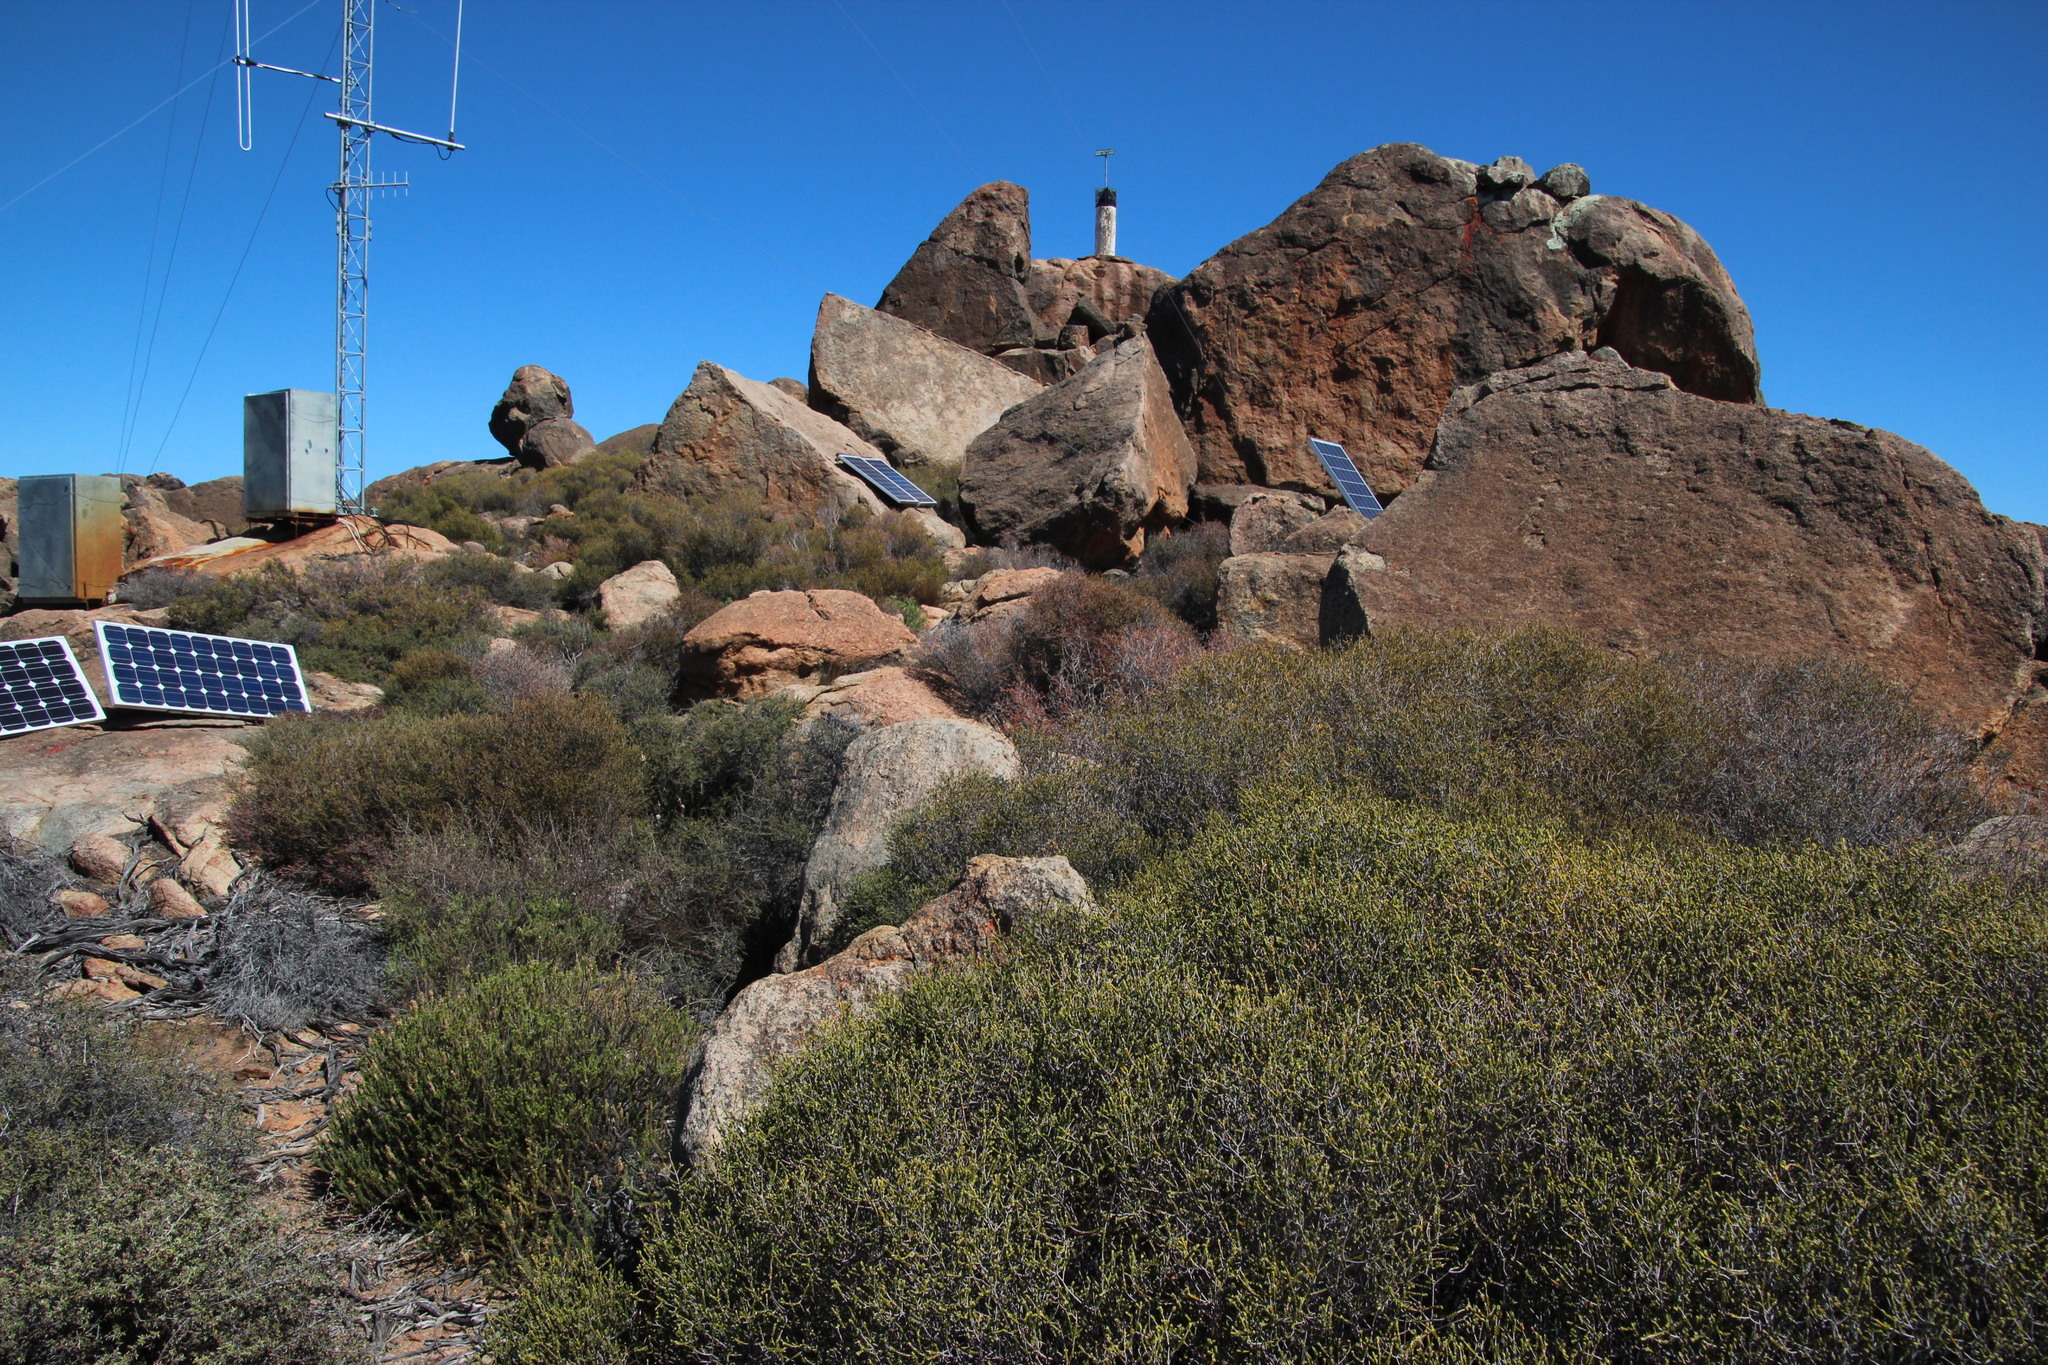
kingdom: Plantae
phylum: Tracheophyta
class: Magnoliopsida
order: Malvales
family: Thymelaeaceae
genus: Passerina
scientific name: Passerina truncata
